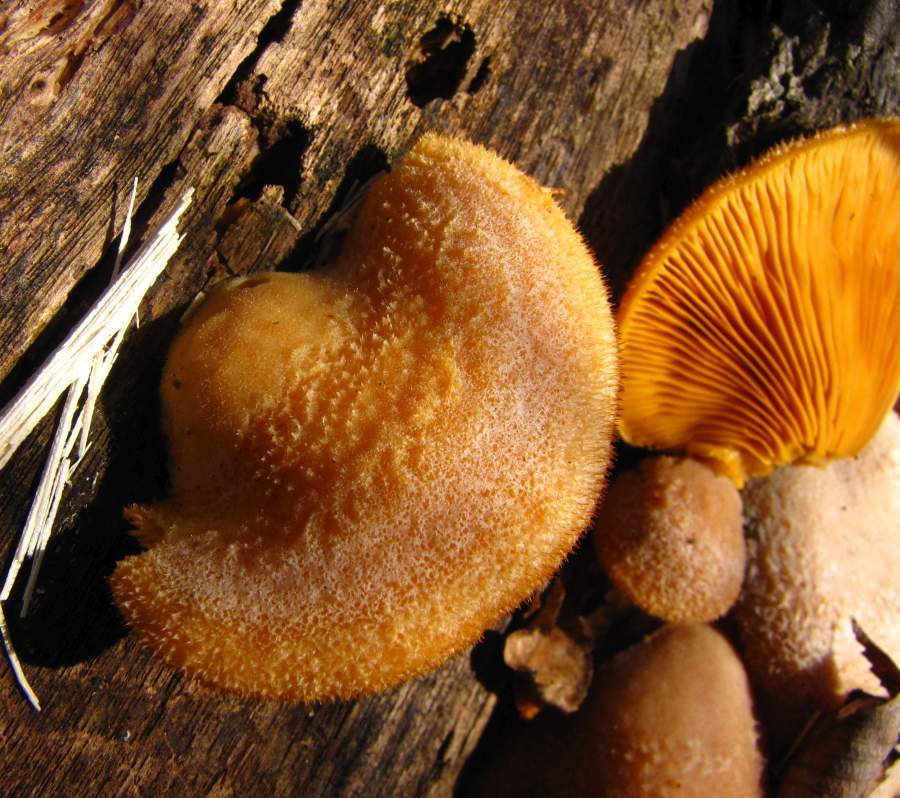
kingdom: Fungi
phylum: Basidiomycota
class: Agaricomycetes
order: Agaricales
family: Phyllotopsidaceae
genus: Phyllotopsis
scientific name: Phyllotopsis nidulans
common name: Orange mock oyster
